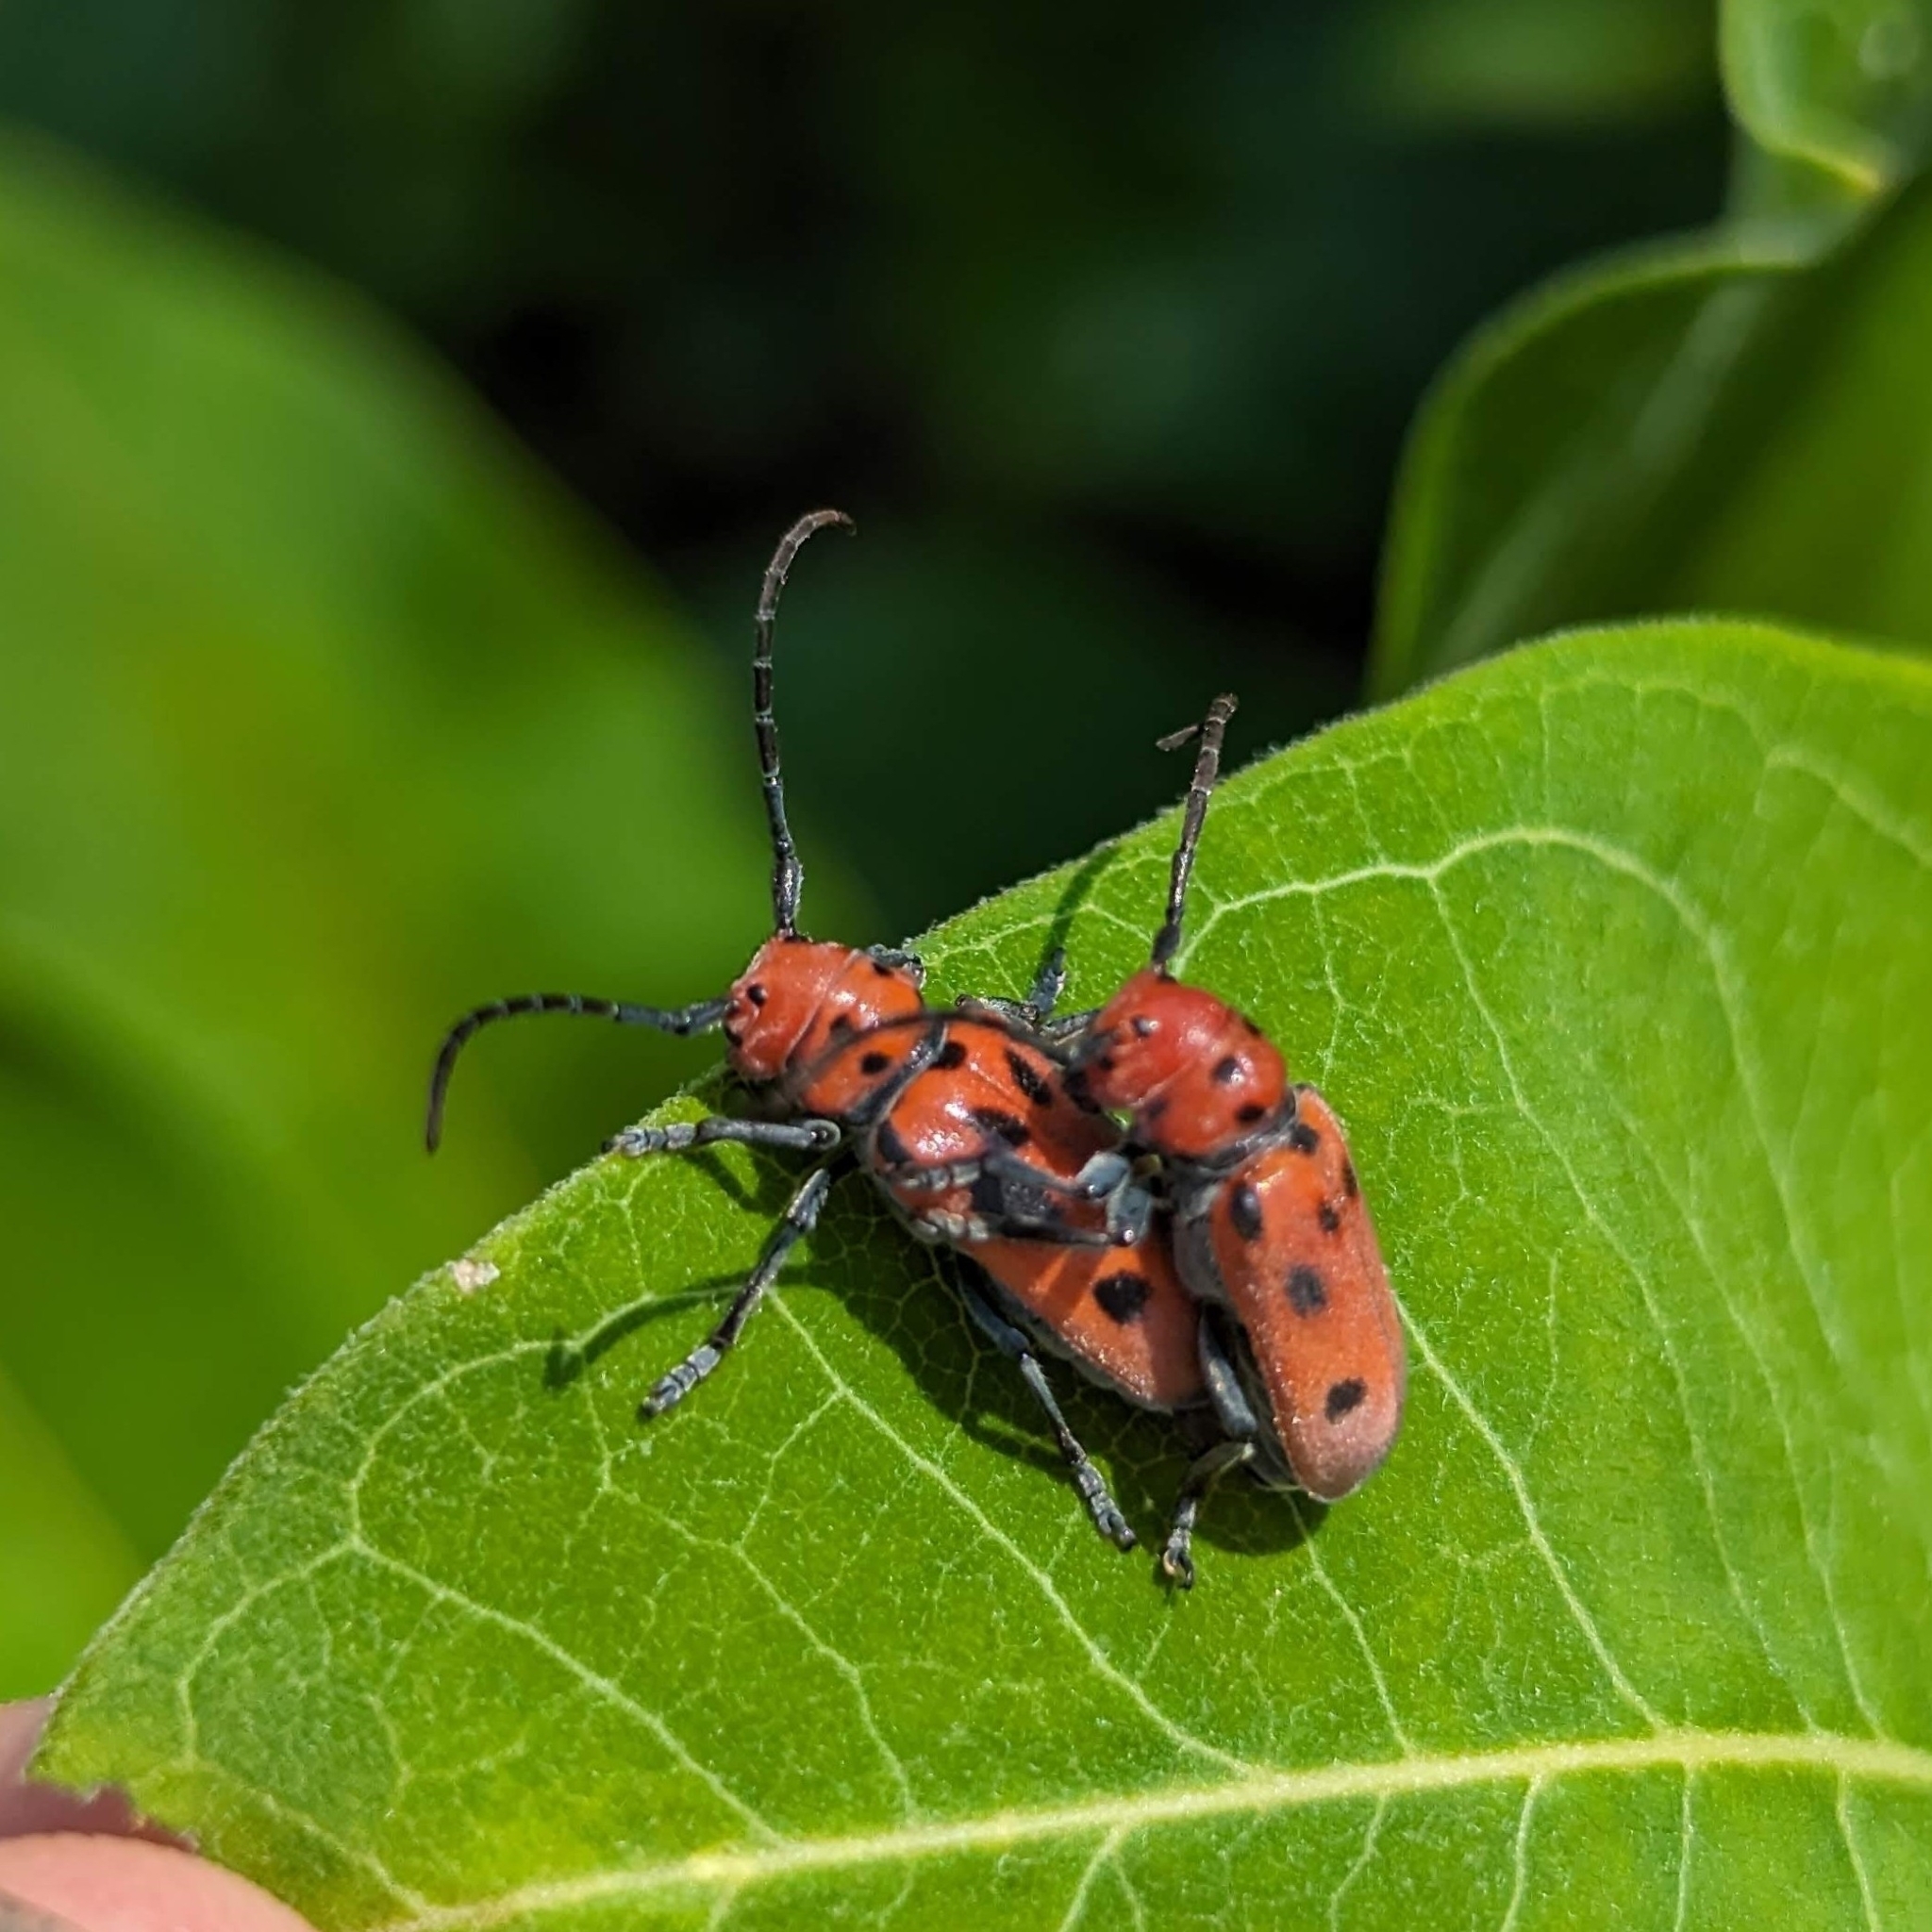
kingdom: Animalia
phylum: Arthropoda
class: Insecta
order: Coleoptera
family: Cerambycidae
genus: Tetraopes
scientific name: Tetraopes tetrophthalmus
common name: Red milkweed beetle
